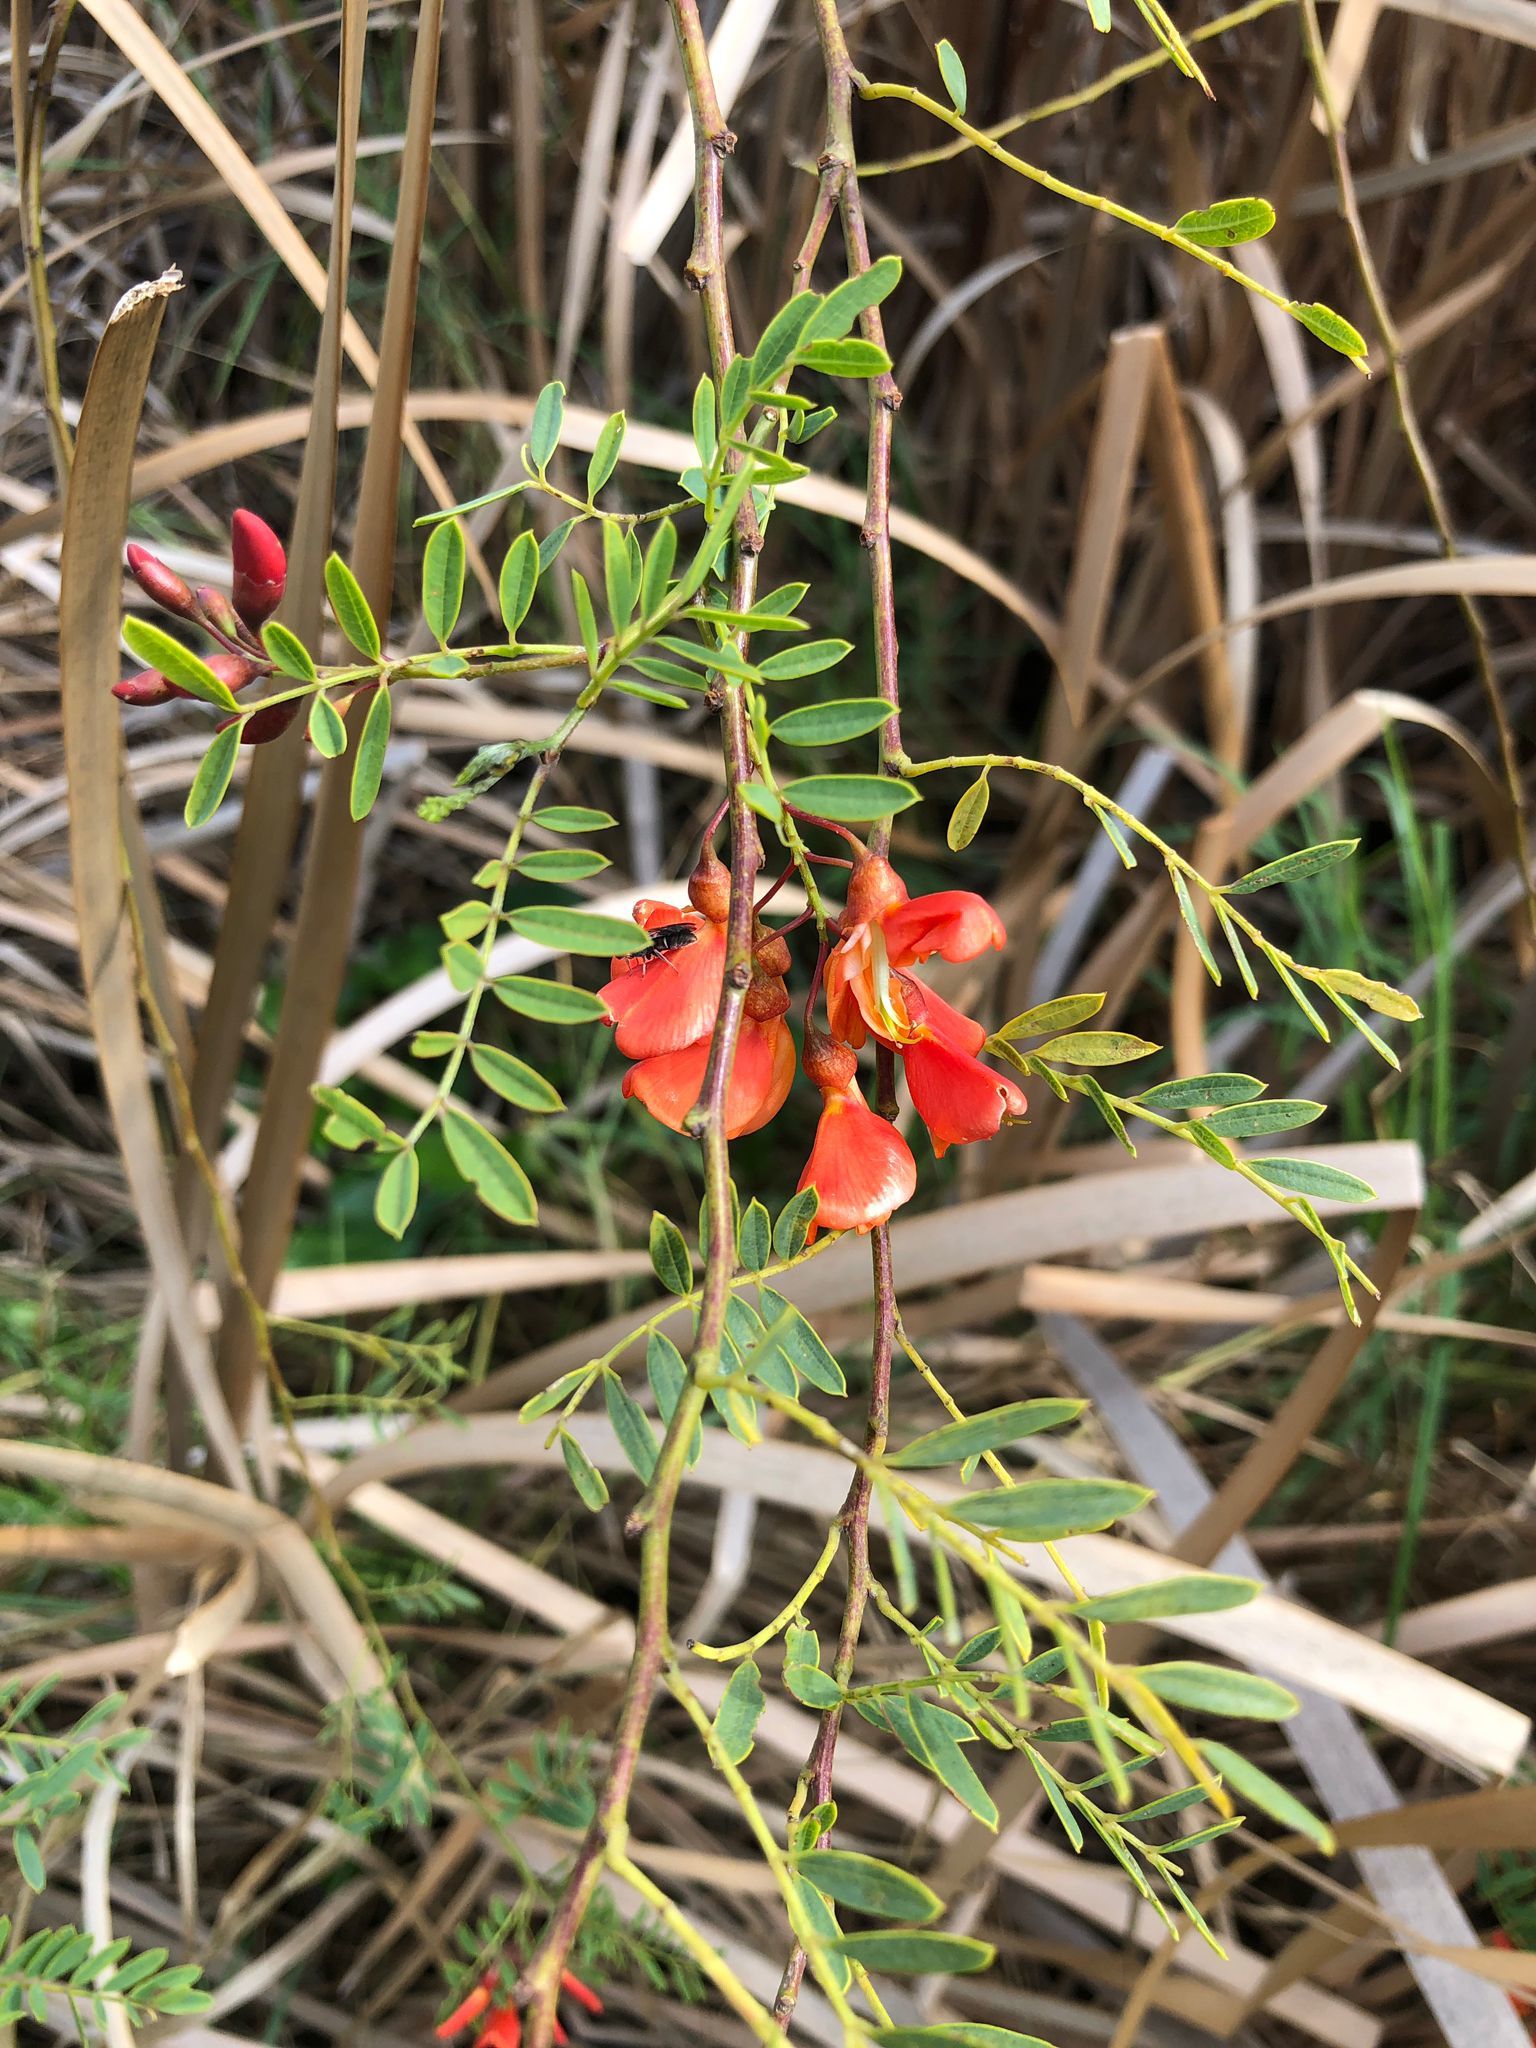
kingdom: Plantae
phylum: Tracheophyta
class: Magnoliopsida
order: Fabales
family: Fabaceae
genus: Sesbania
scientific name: Sesbania punicea
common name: Rattlebox
